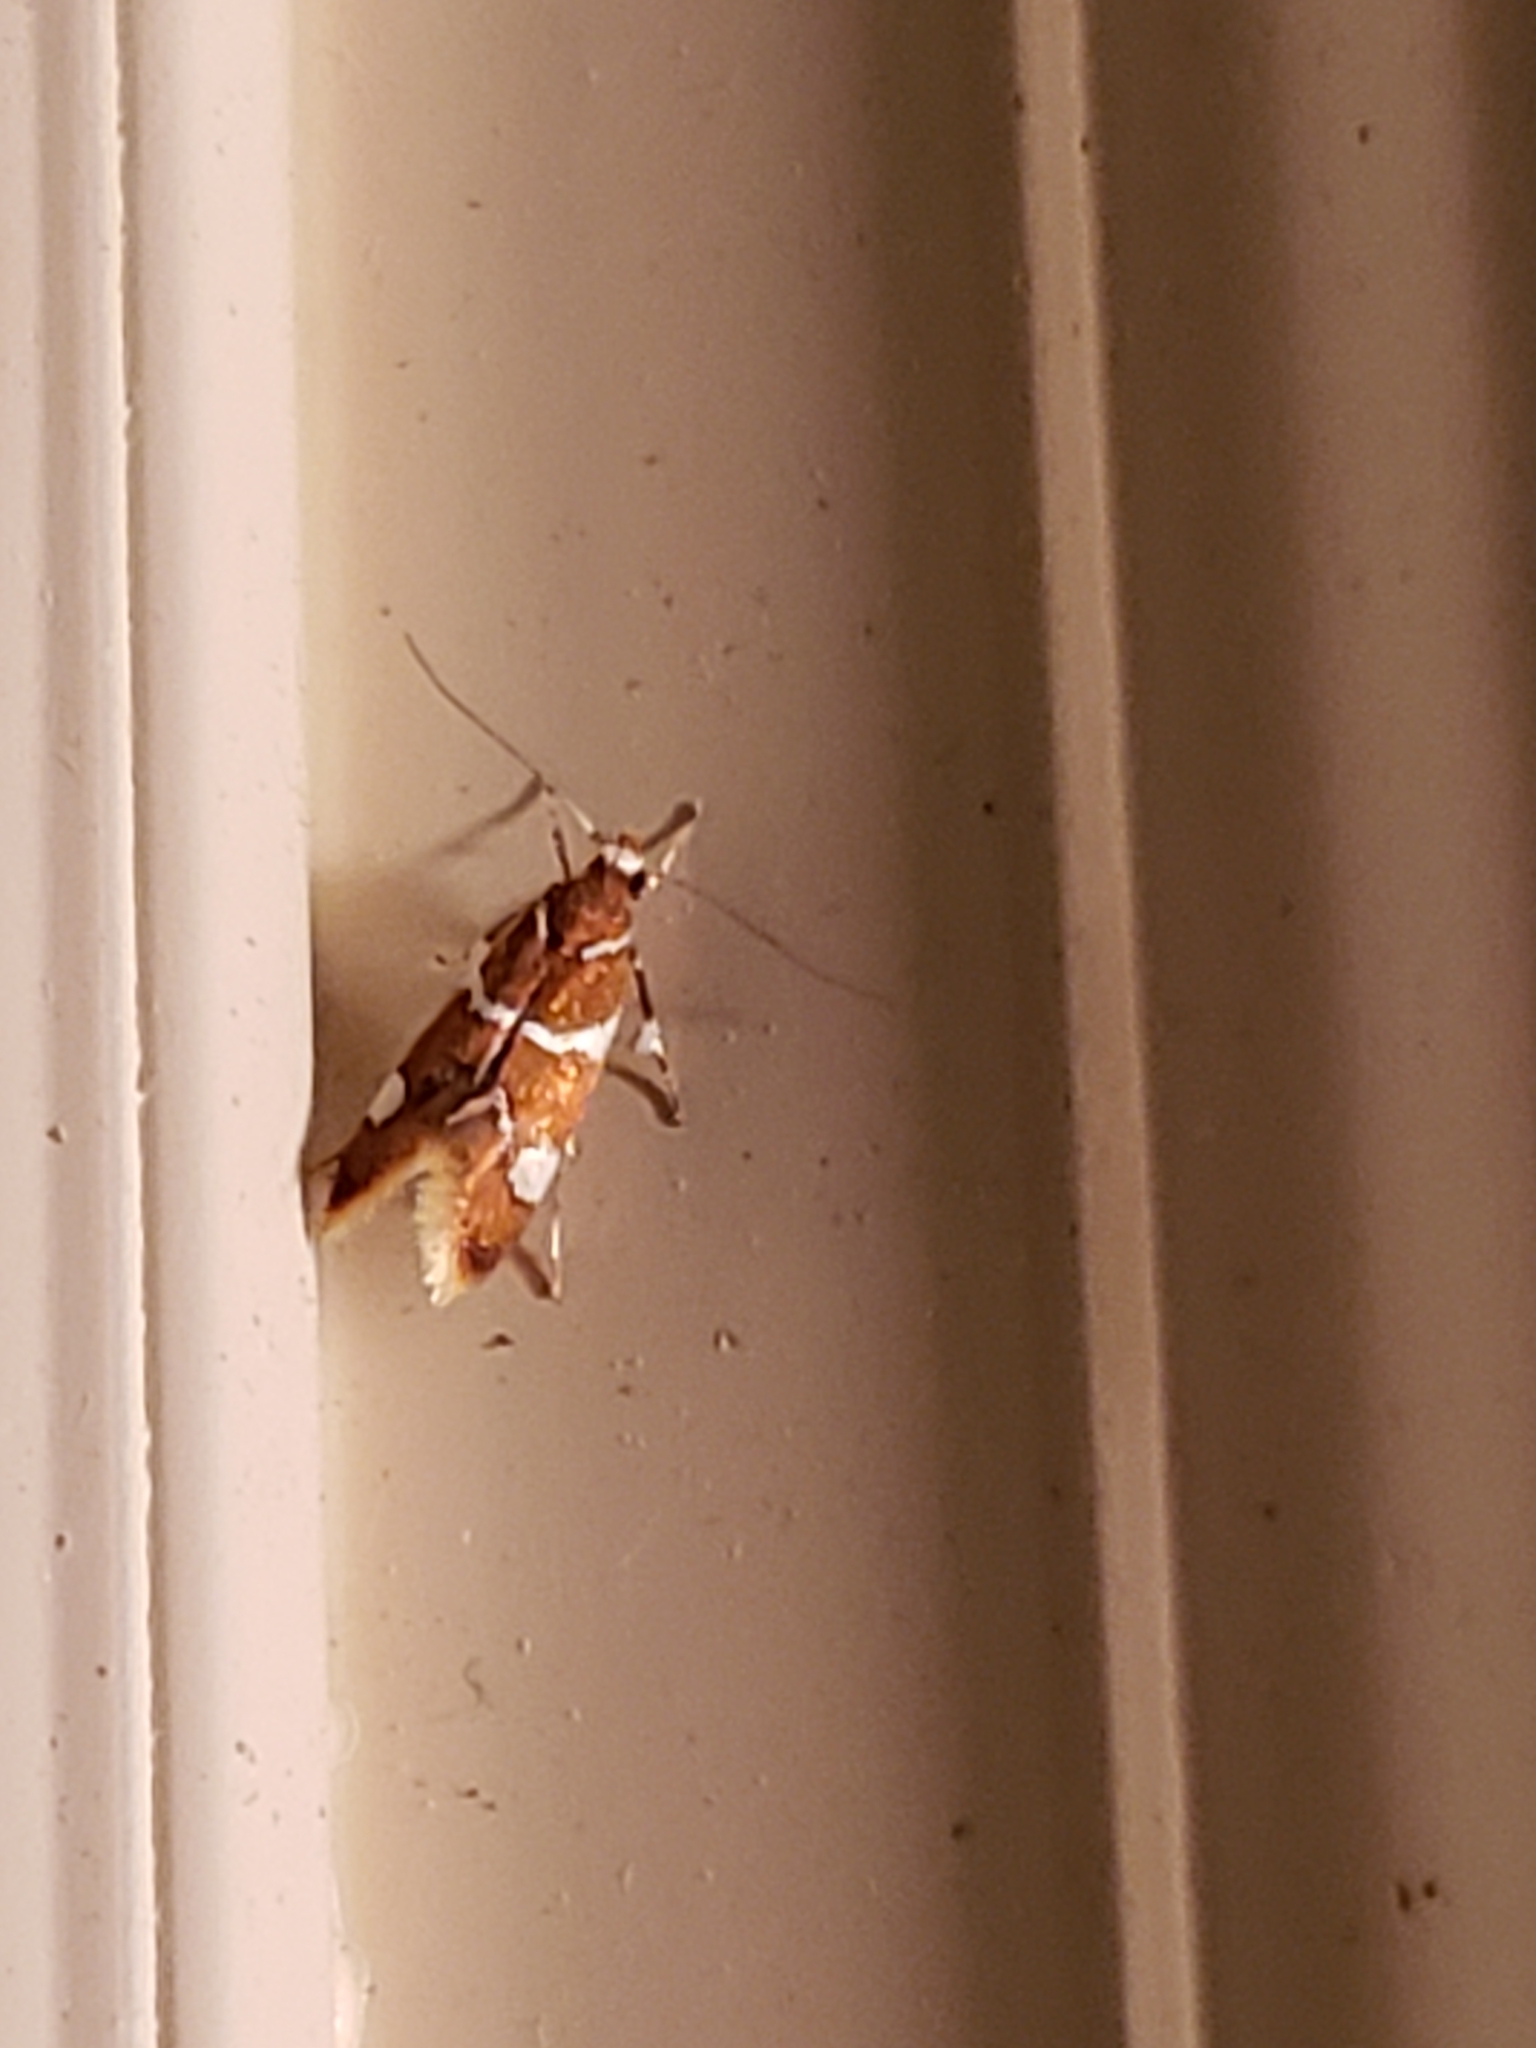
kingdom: Animalia
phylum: Arthropoda
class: Insecta
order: Lepidoptera
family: Oecophoridae
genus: Promalactis
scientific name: Promalactis suzukiella
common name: Moth
